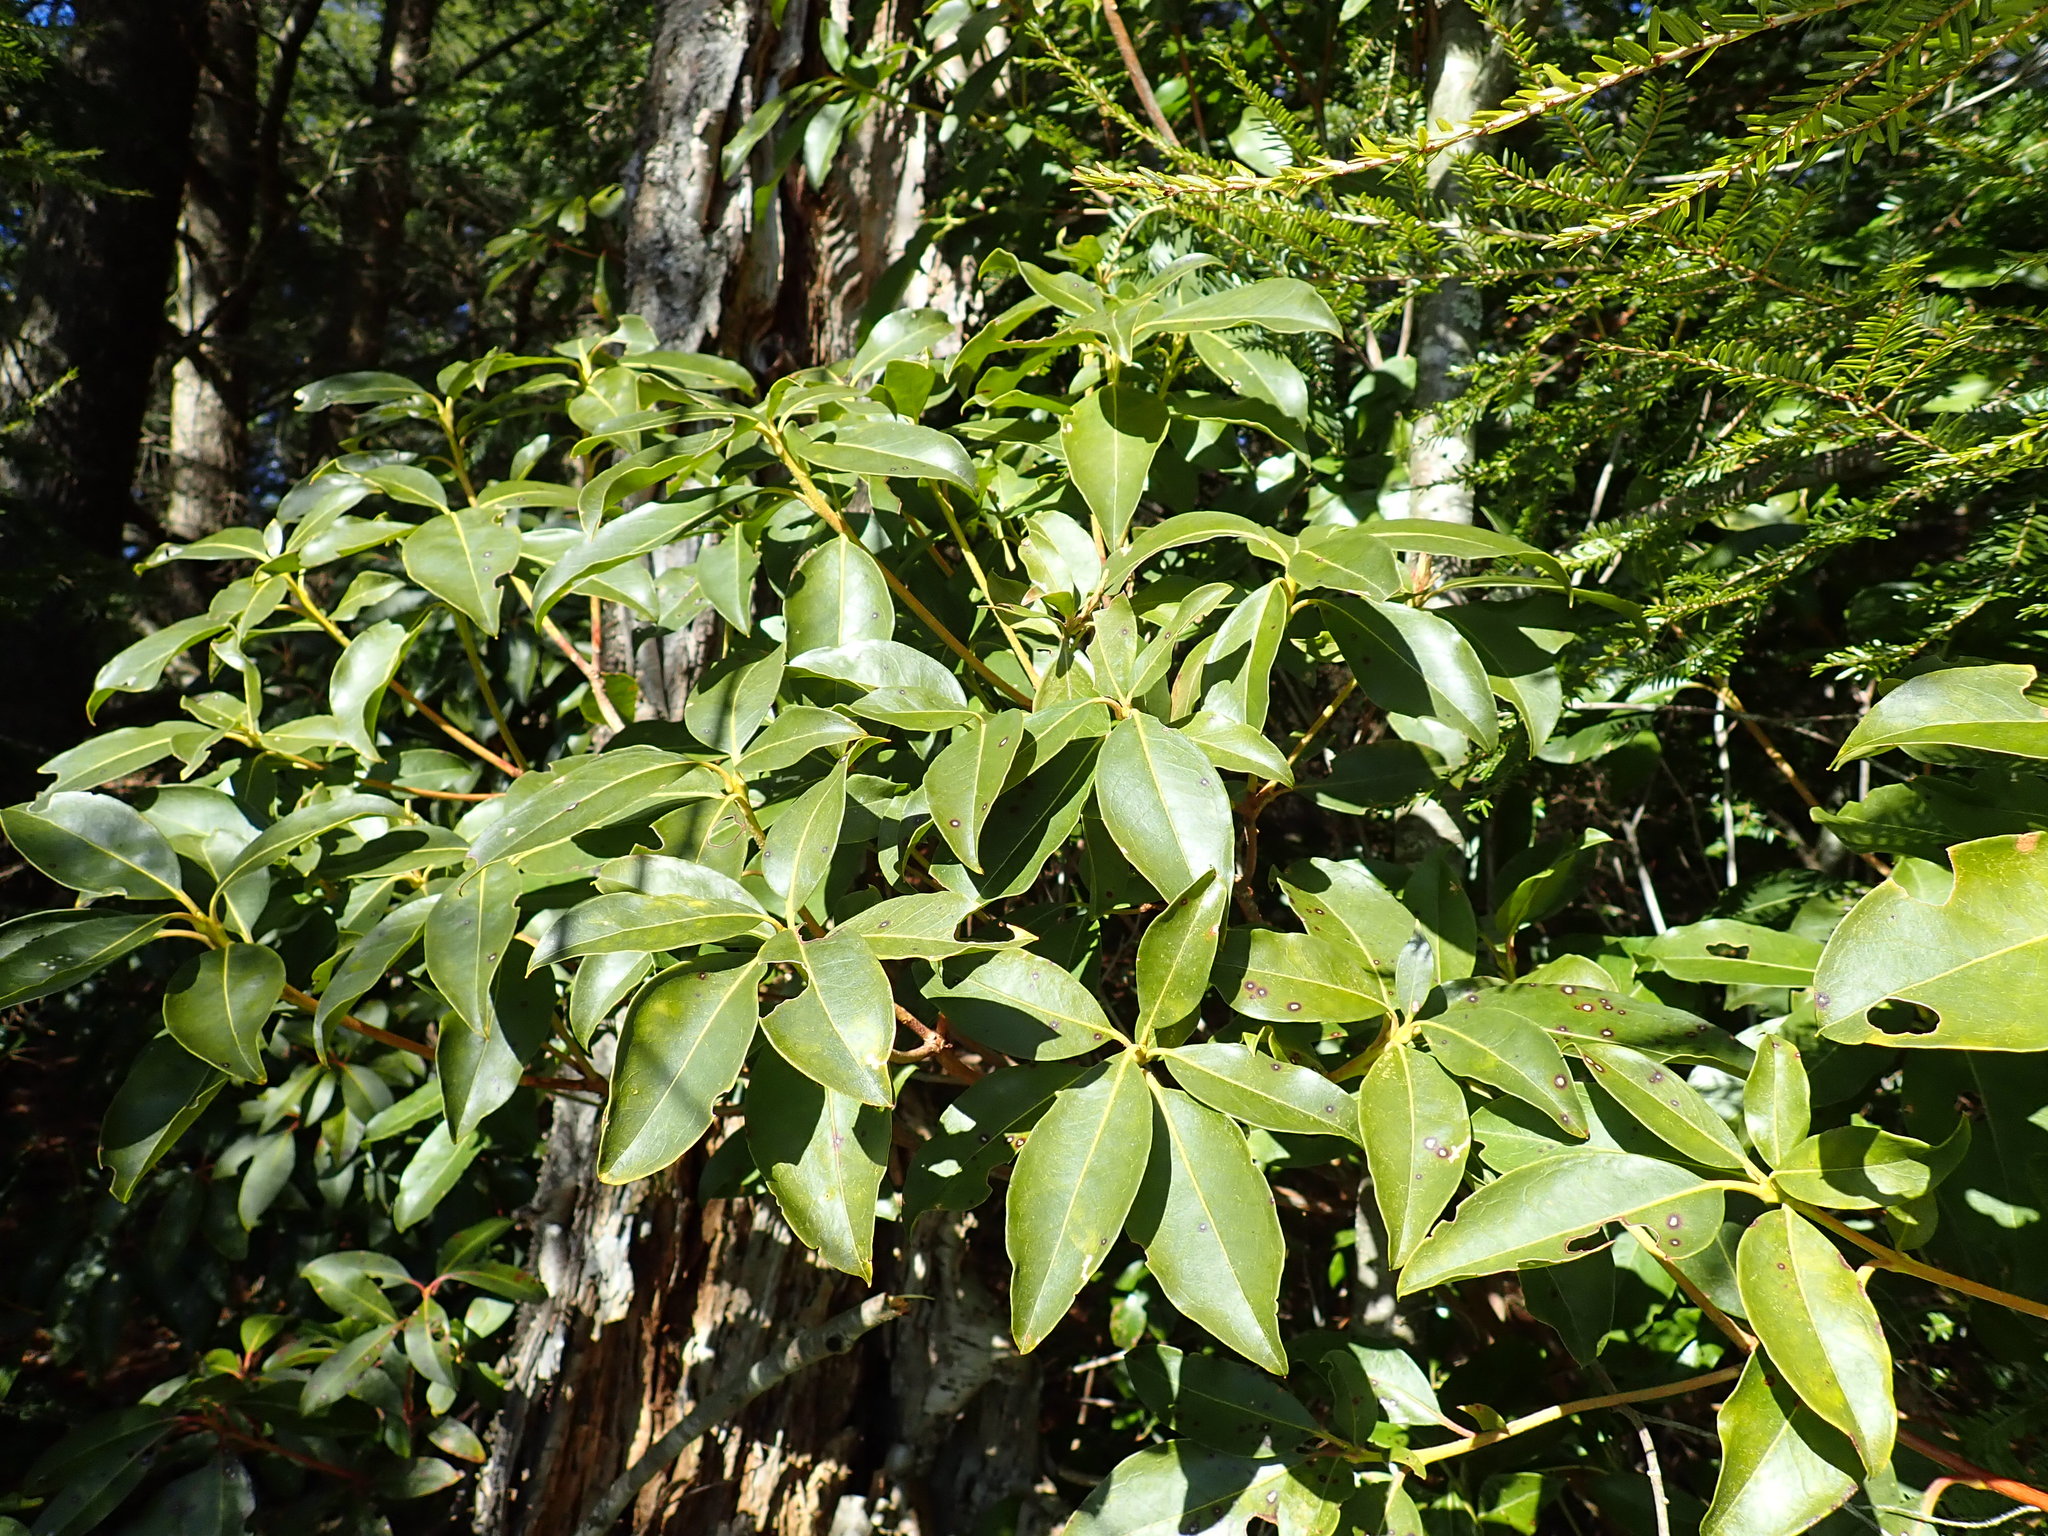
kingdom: Plantae
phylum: Tracheophyta
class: Magnoliopsida
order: Ericales
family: Ericaceae
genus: Kalmia
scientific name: Kalmia latifolia
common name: Mountain-laurel
